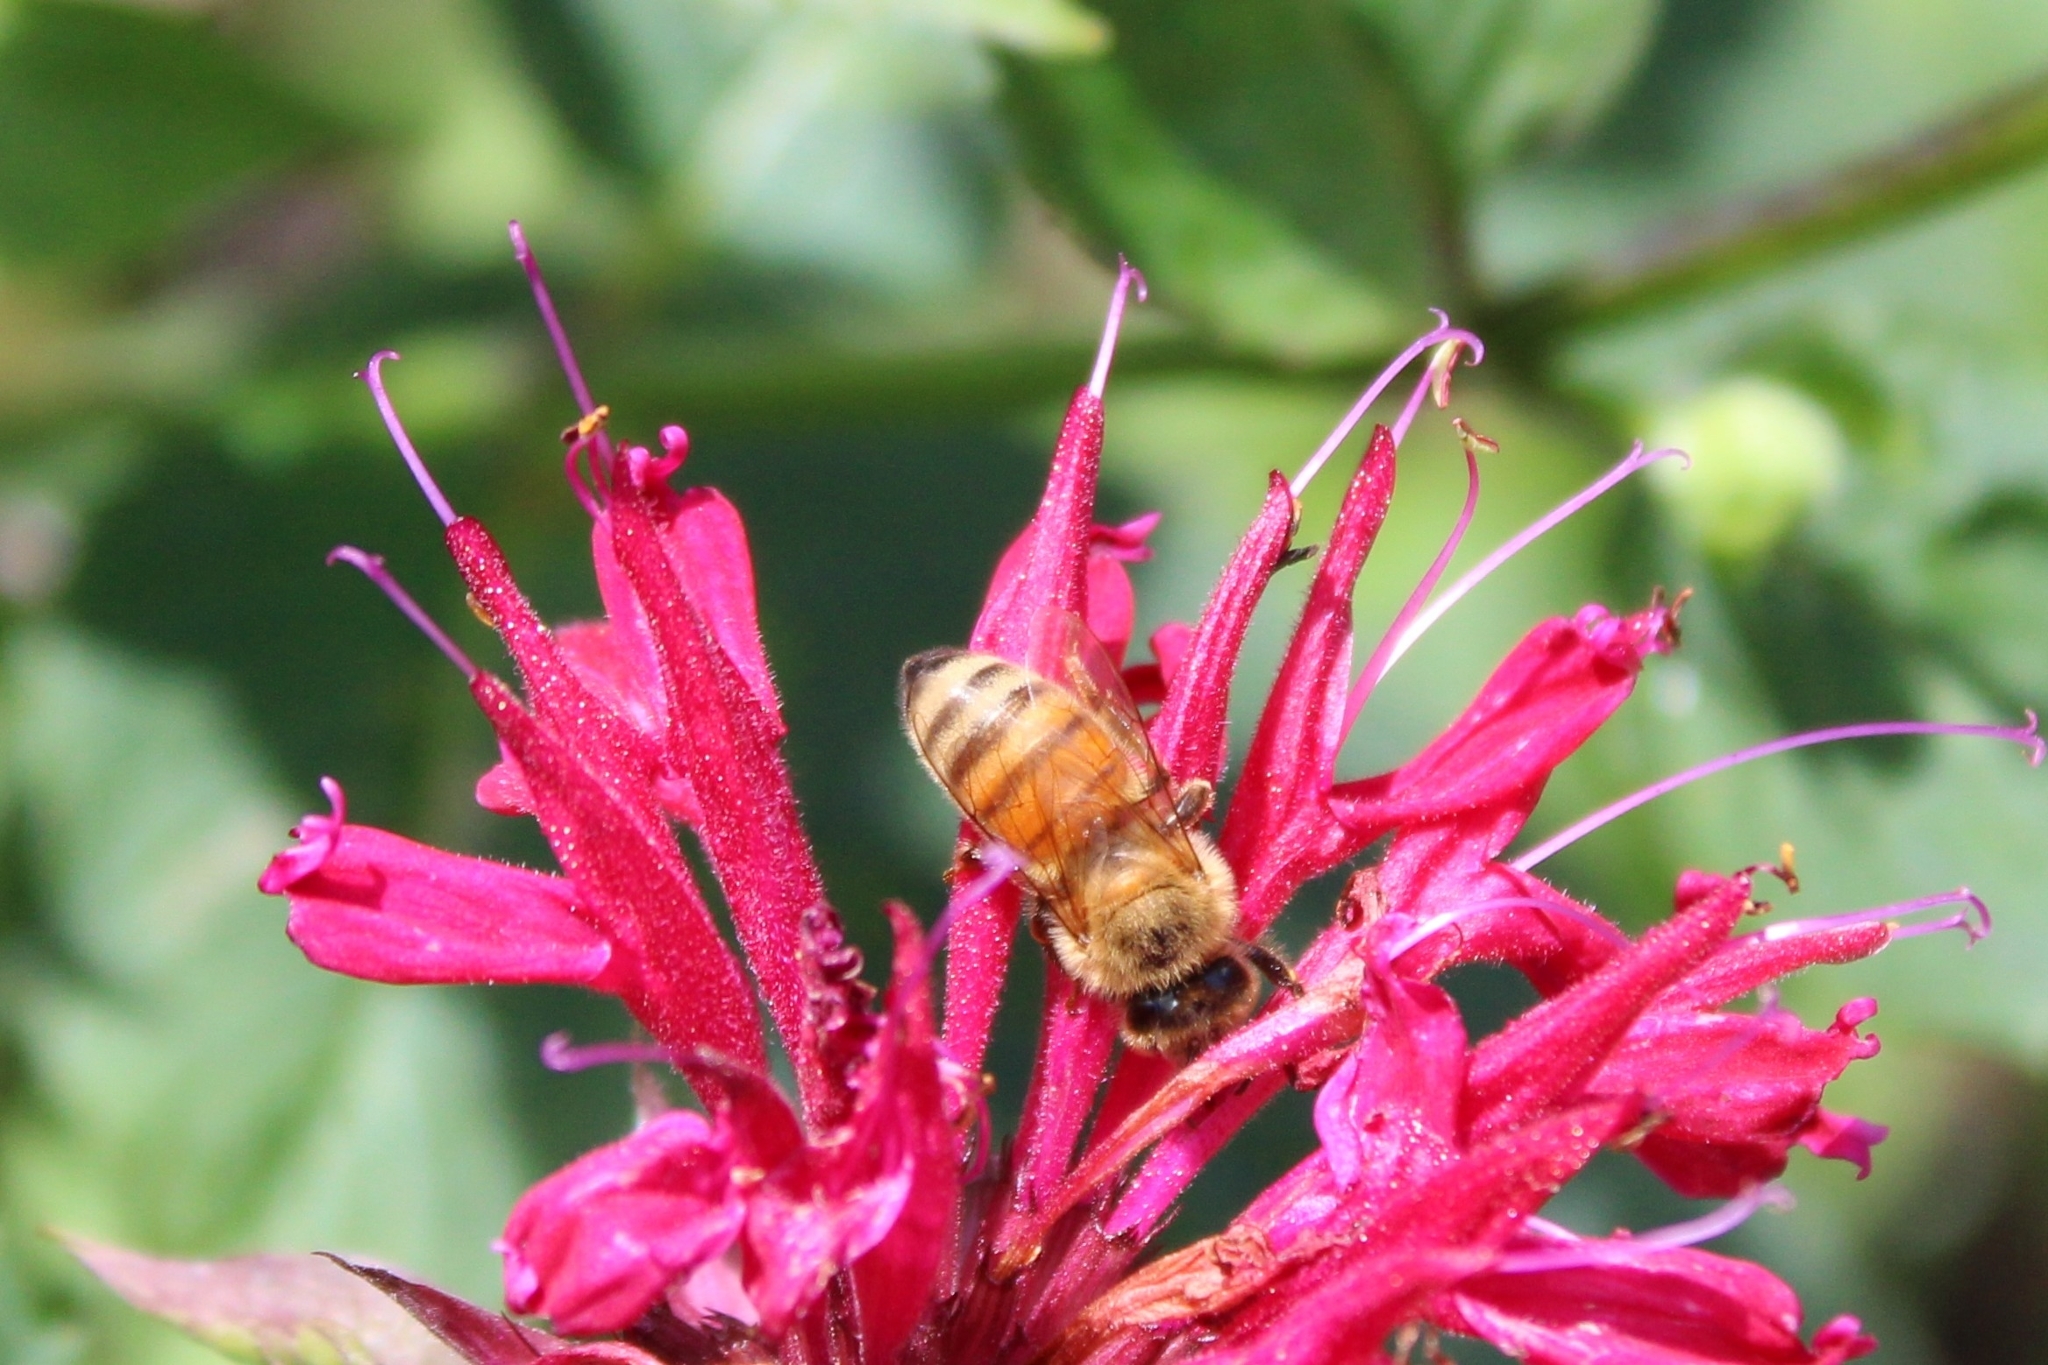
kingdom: Animalia
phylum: Arthropoda
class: Insecta
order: Hymenoptera
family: Apidae
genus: Apis
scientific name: Apis mellifera
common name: Honey bee
